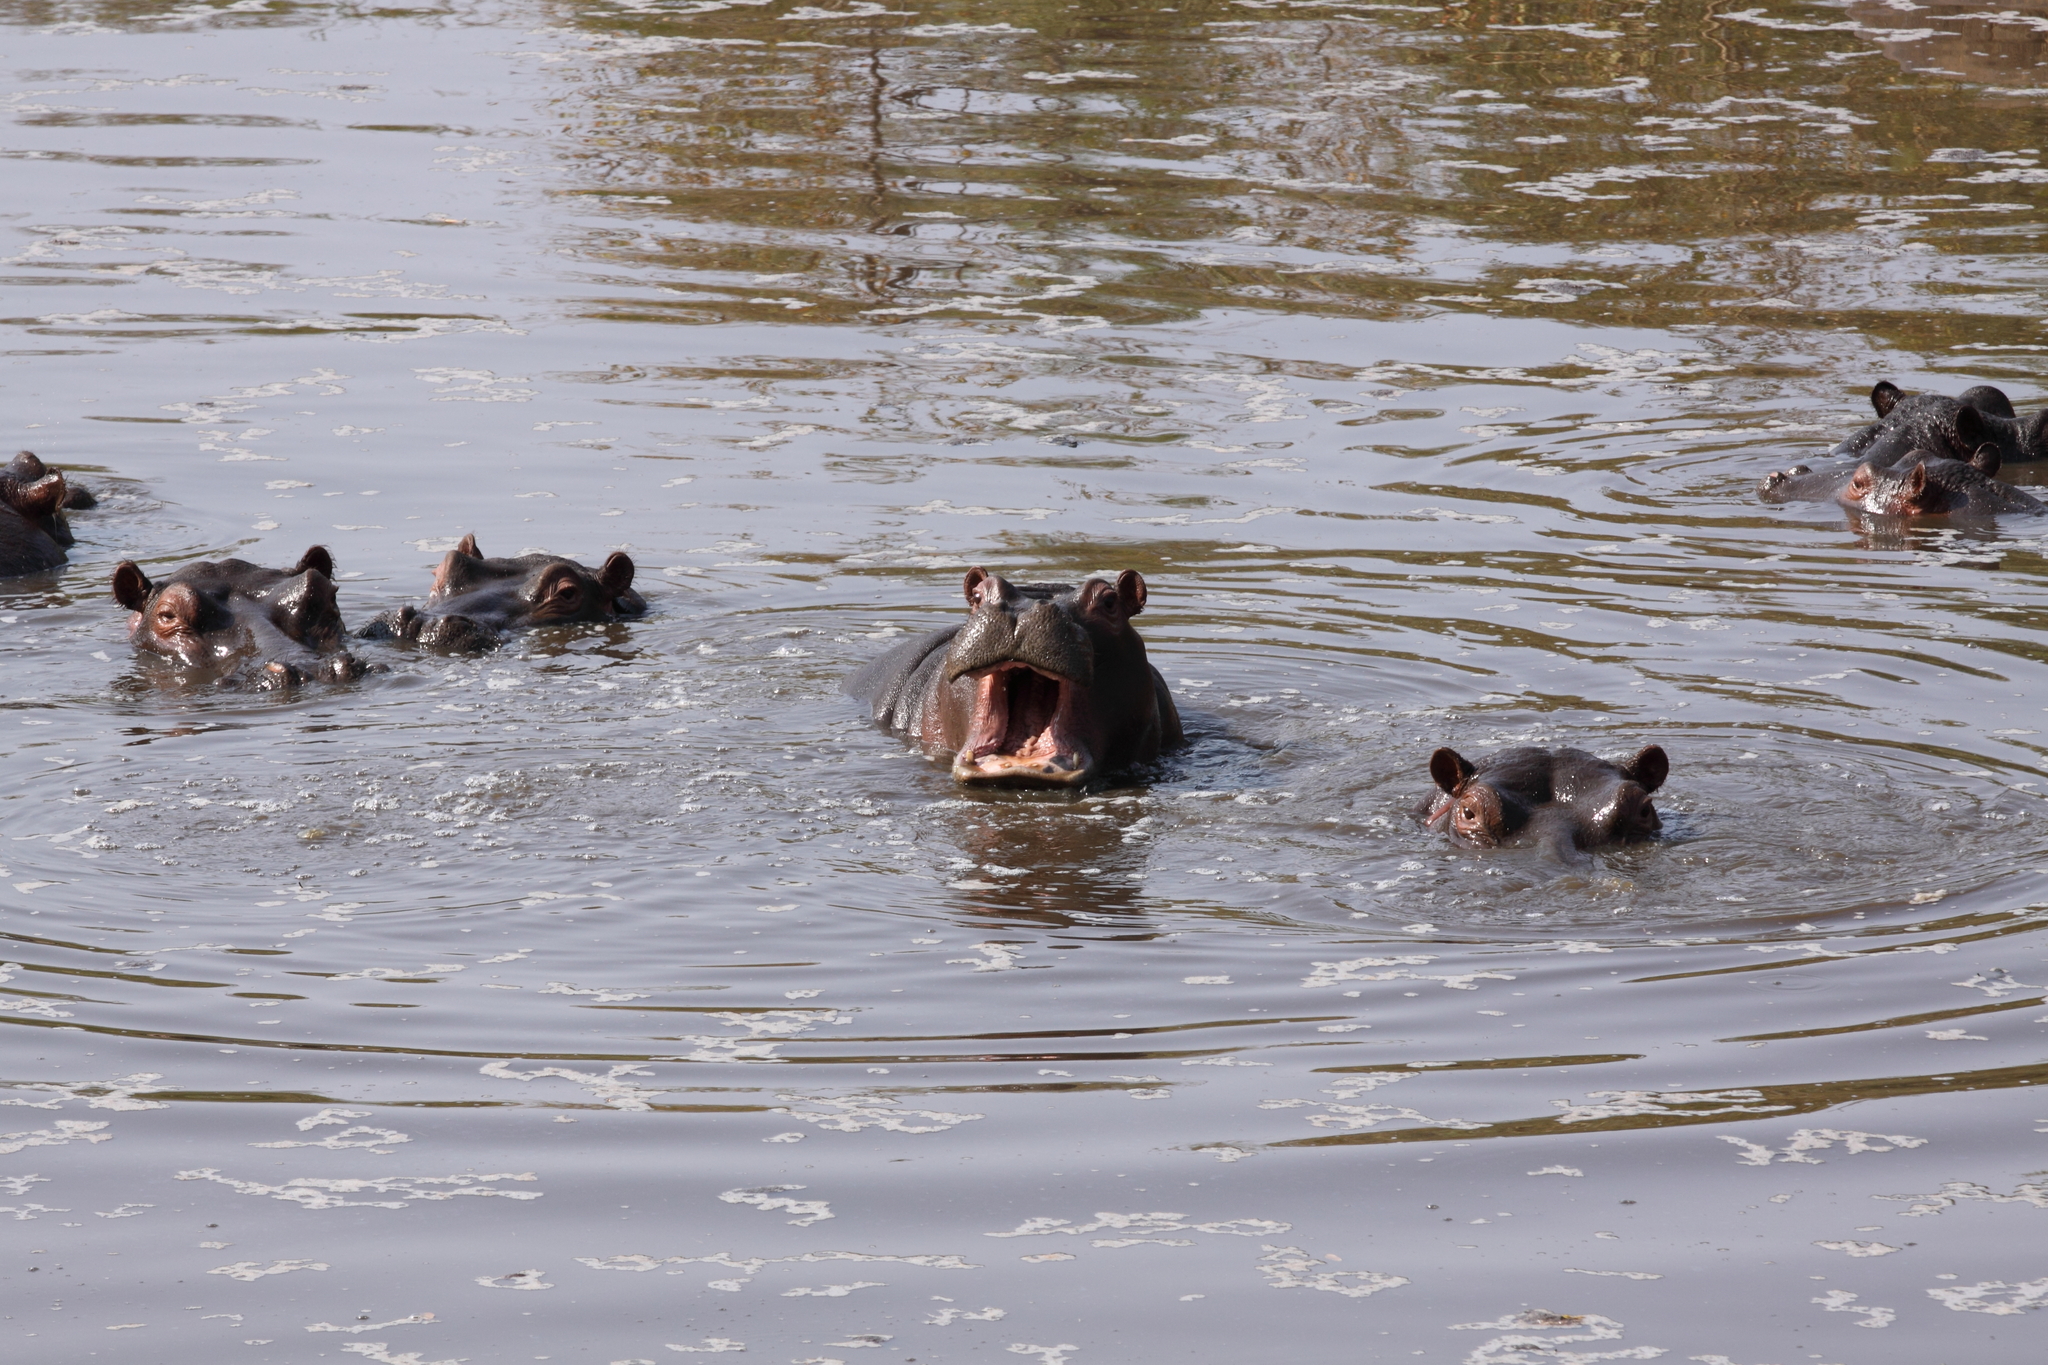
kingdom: Animalia
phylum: Chordata
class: Mammalia
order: Artiodactyla
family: Hippopotamidae
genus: Hippopotamus
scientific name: Hippopotamus amphibius
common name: Common hippopotamus
